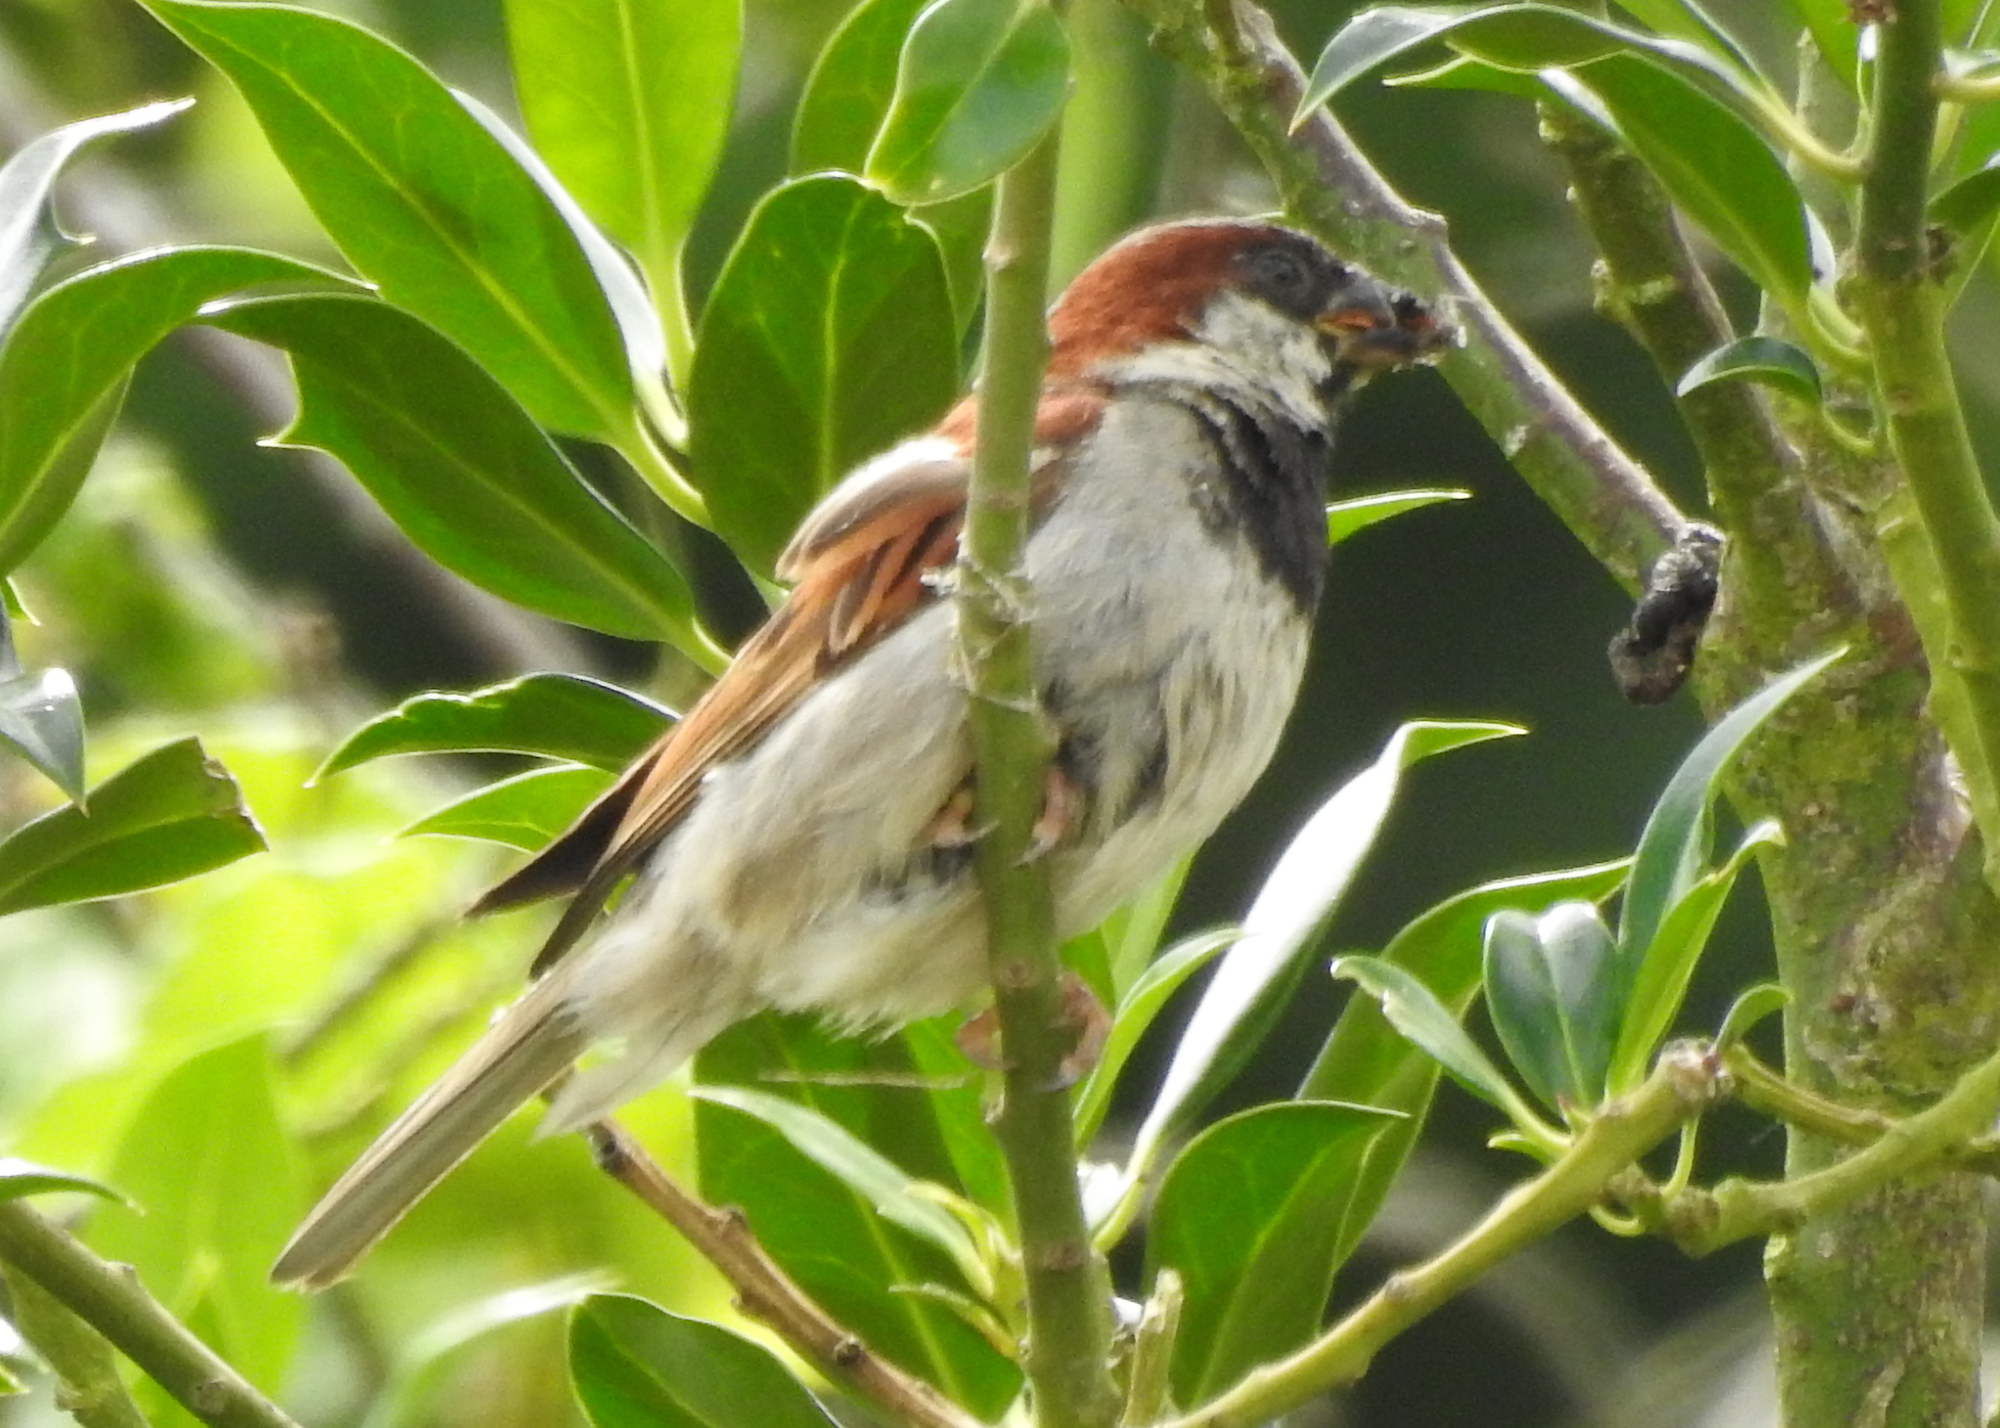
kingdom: Animalia
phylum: Chordata
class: Aves
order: Passeriformes
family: Passeridae
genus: Passer
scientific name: Passer domesticus
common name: House sparrow
